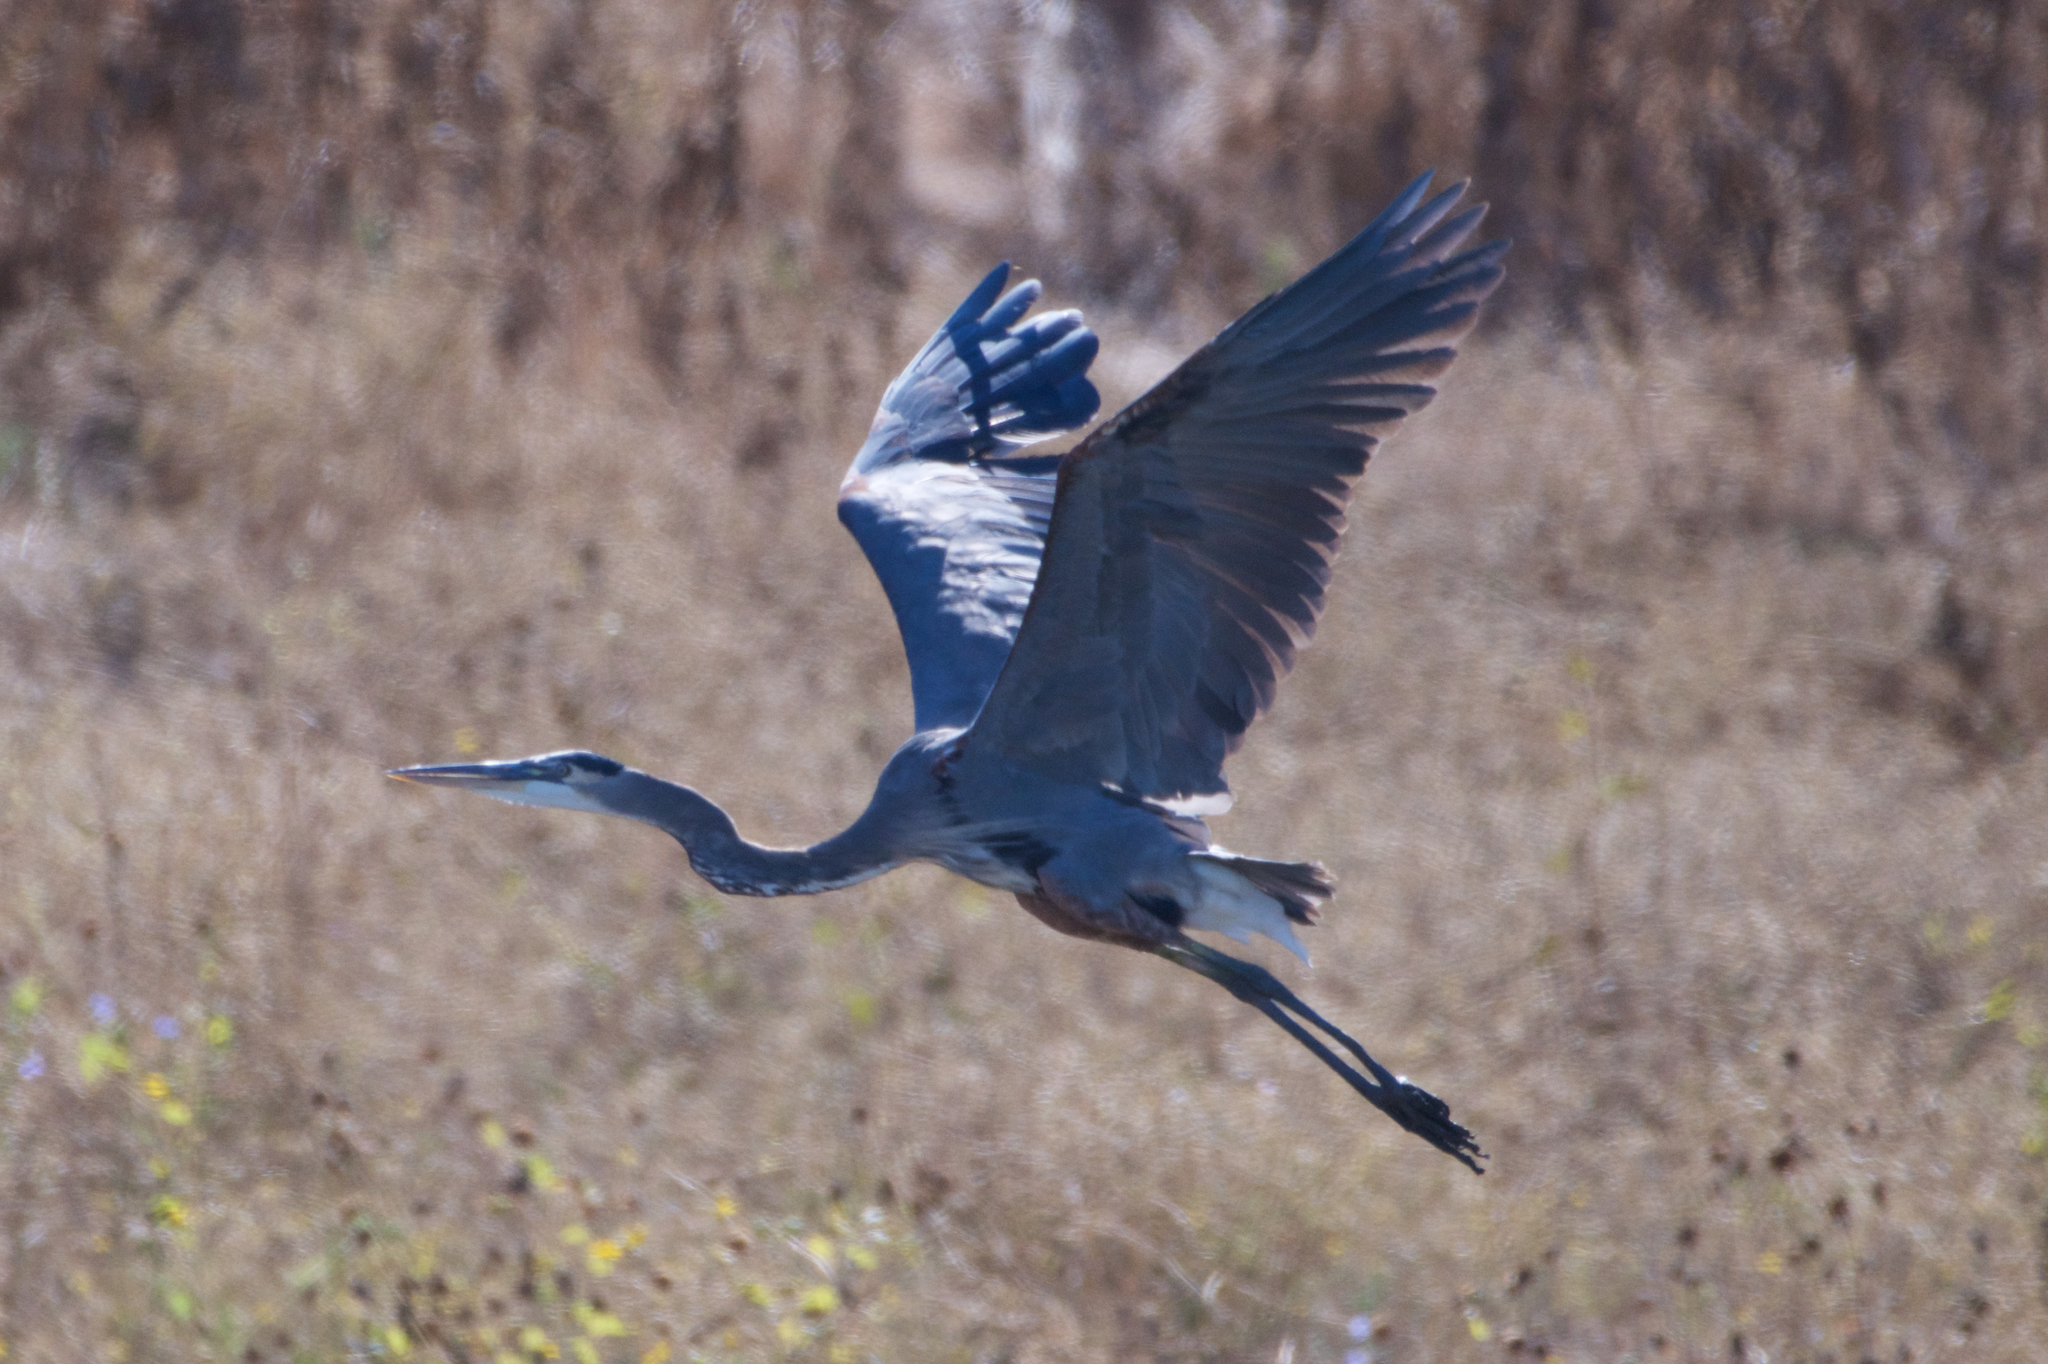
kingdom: Animalia
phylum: Chordata
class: Aves
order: Pelecaniformes
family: Ardeidae
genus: Ardea
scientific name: Ardea herodias
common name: Great blue heron
